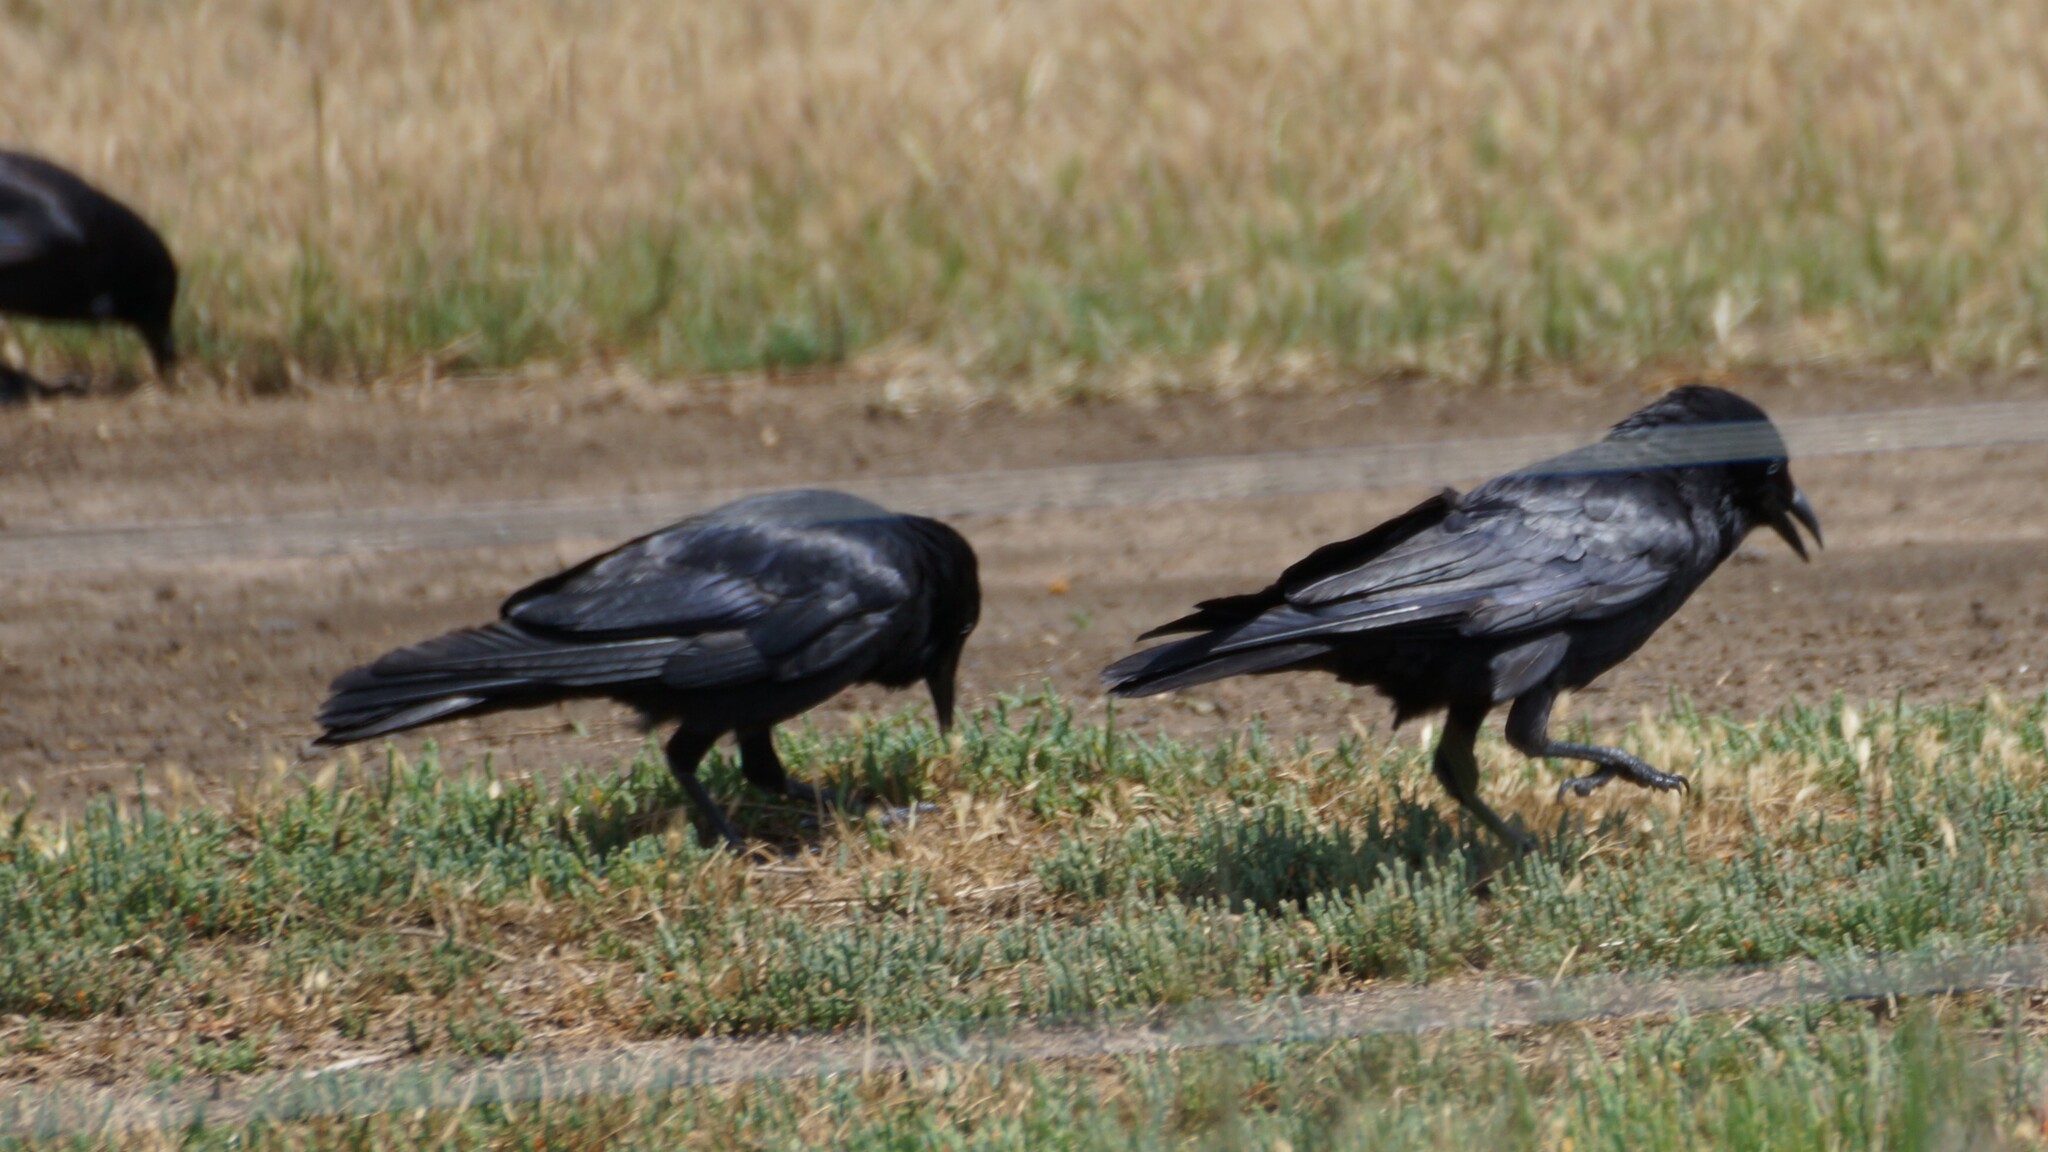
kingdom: Animalia
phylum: Chordata
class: Aves
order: Passeriformes
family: Corvidae
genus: Corvus
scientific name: Corvus mellori
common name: Little raven
